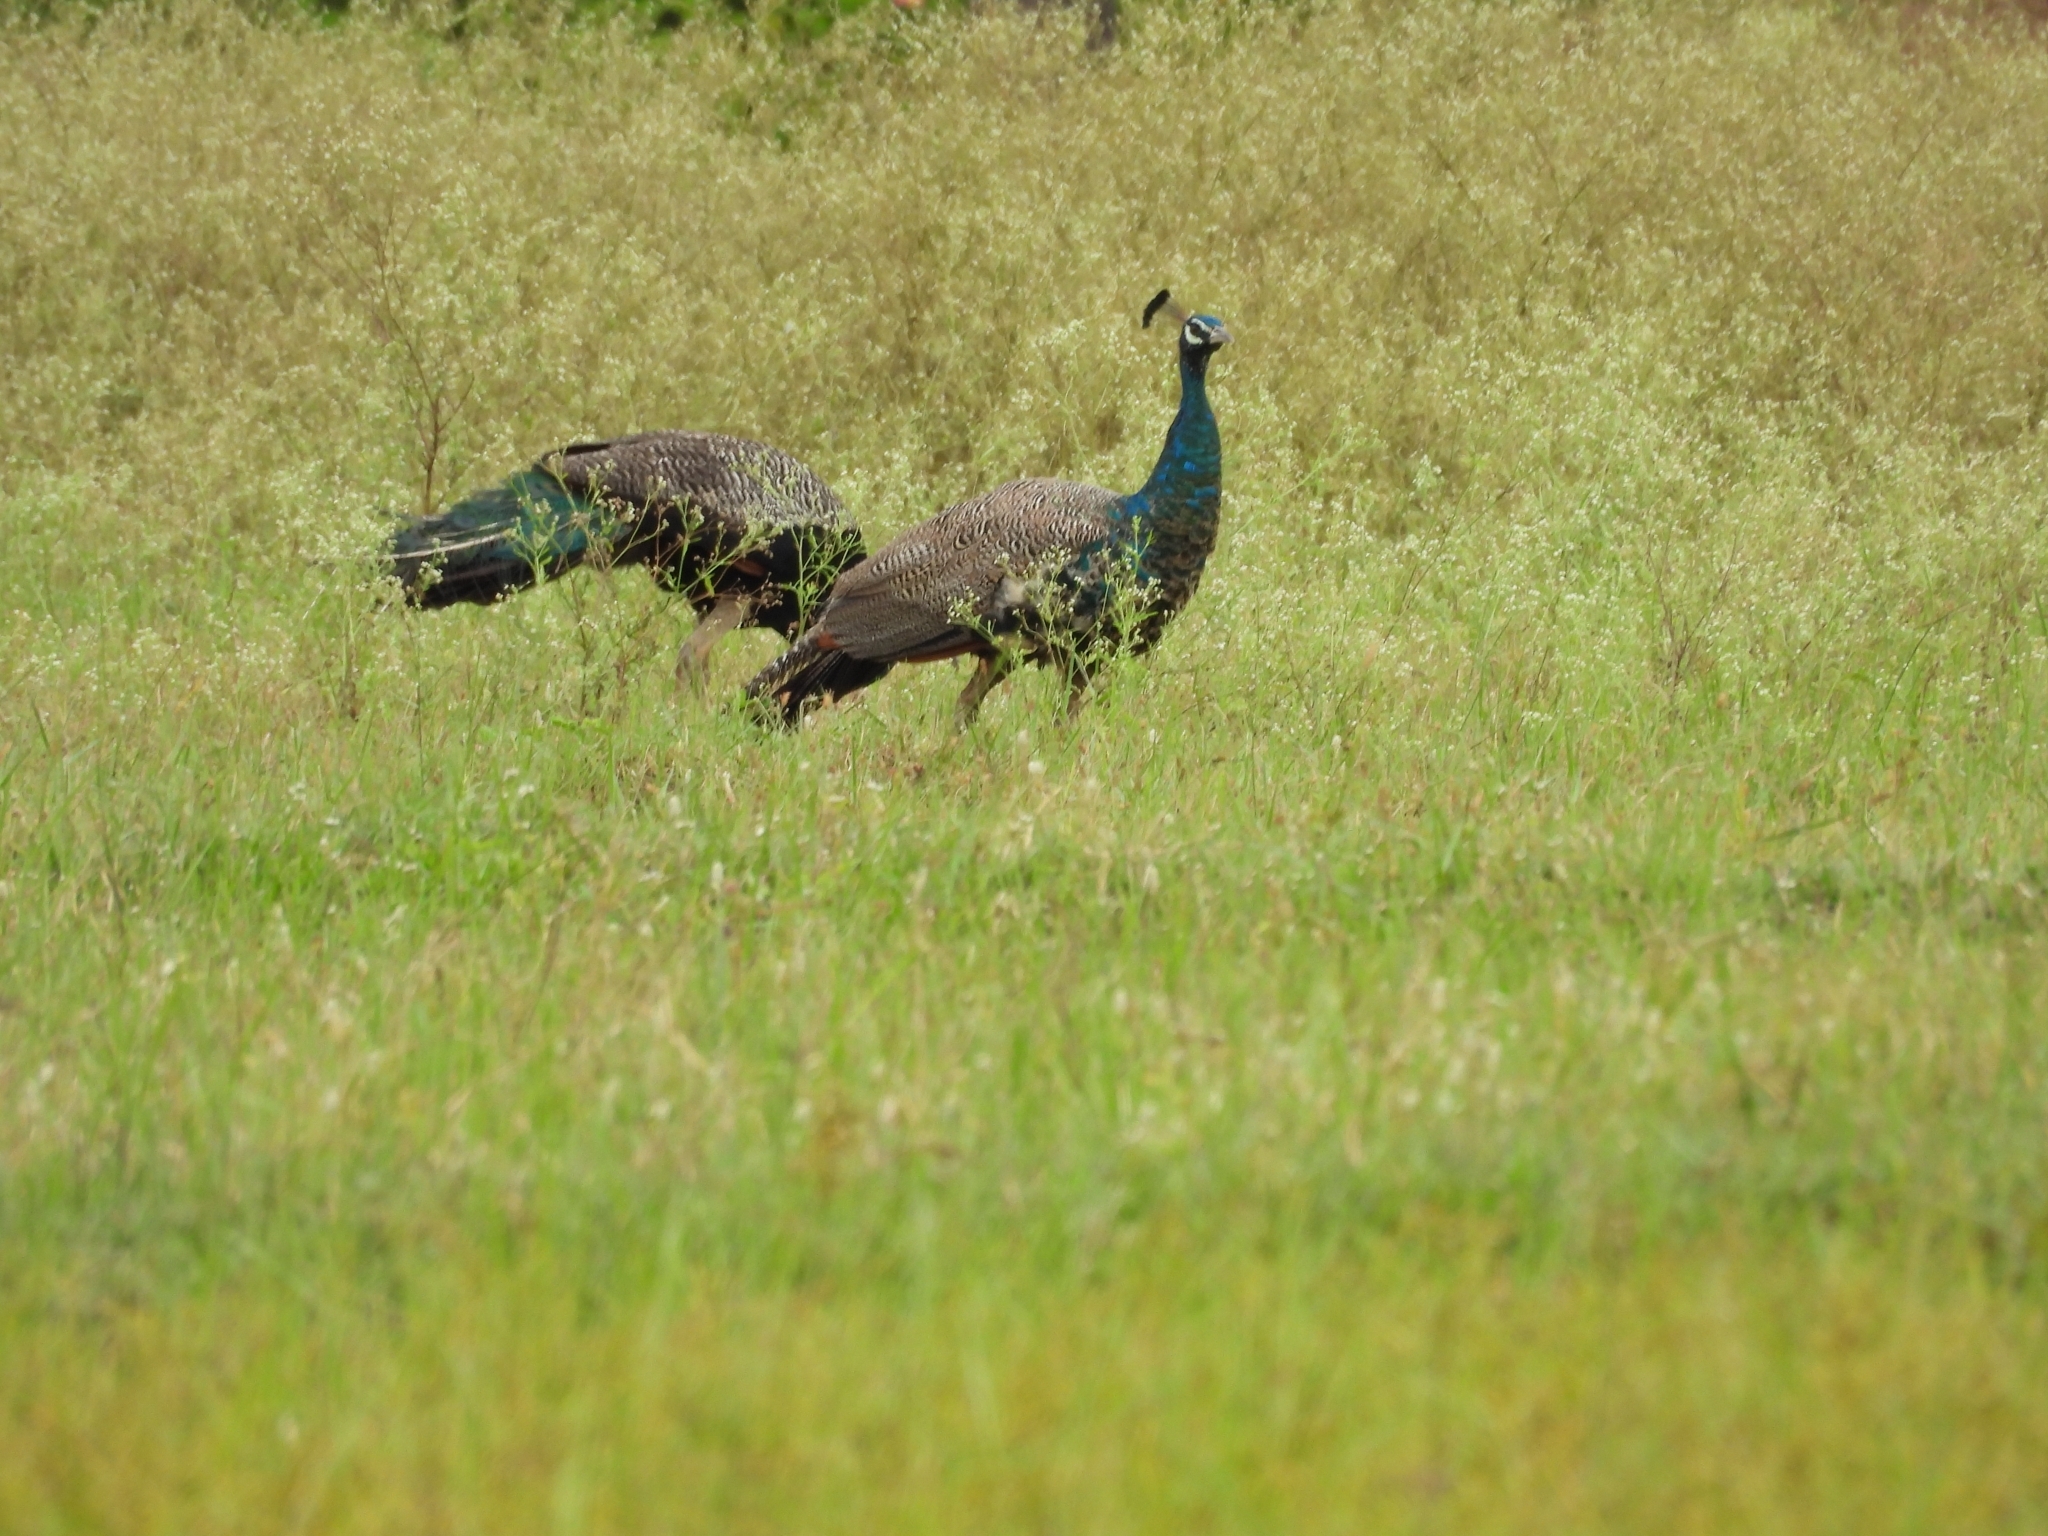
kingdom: Animalia
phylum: Chordata
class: Aves
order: Galliformes
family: Phasianidae
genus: Pavo
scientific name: Pavo cristatus
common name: Indian peafowl
